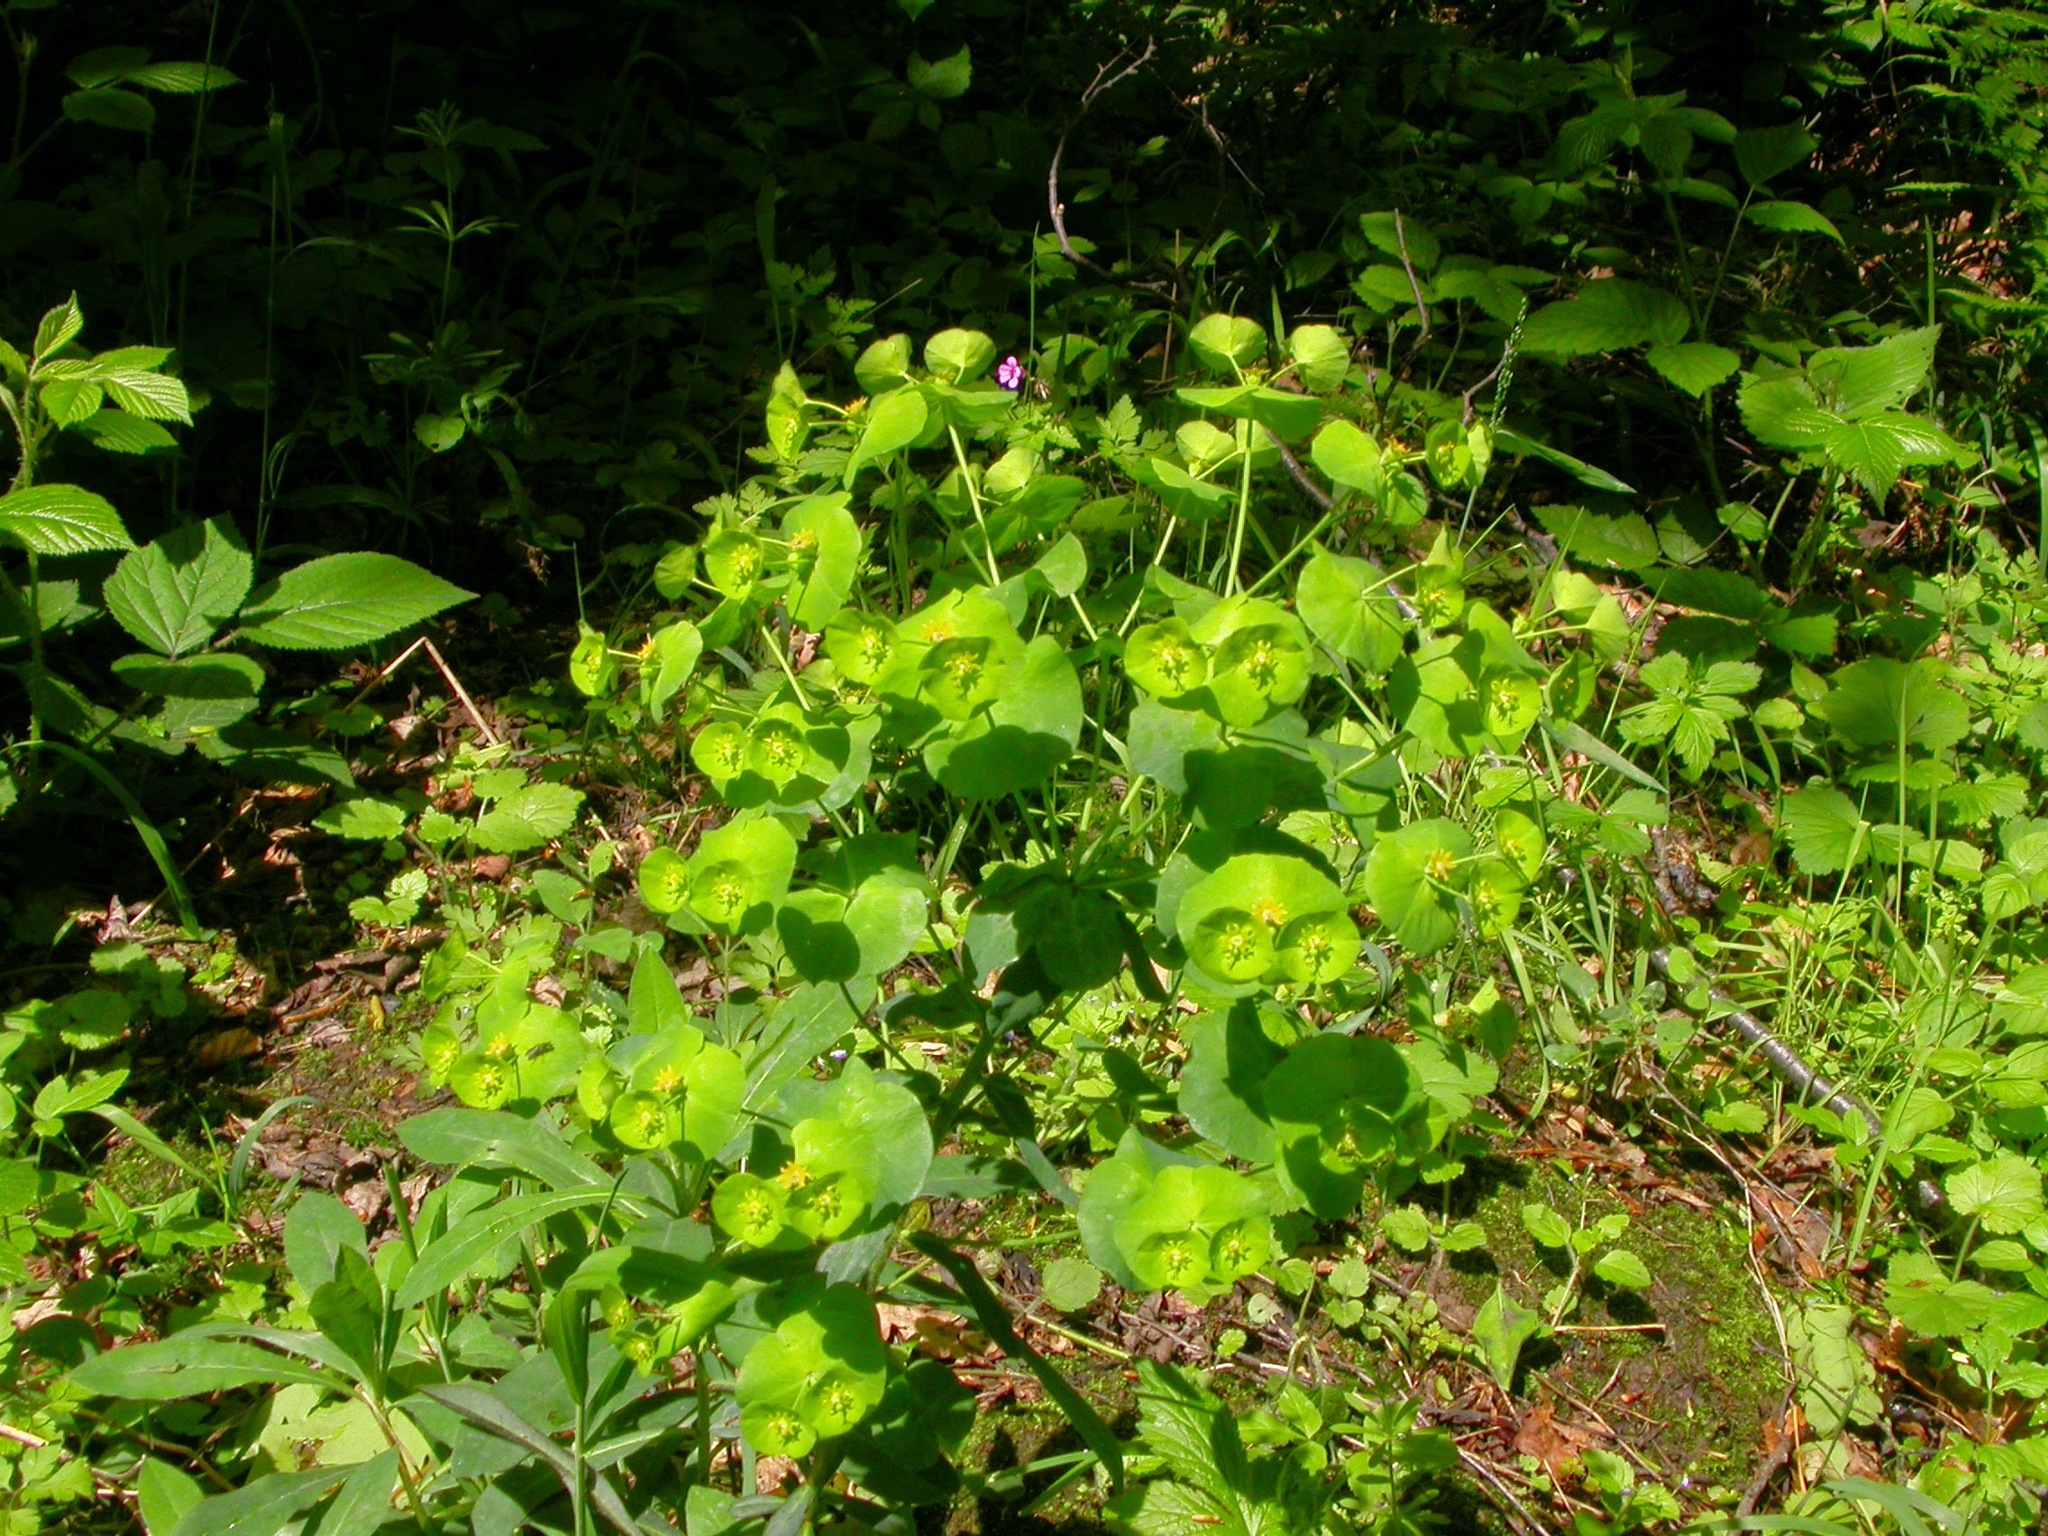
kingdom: Plantae
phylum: Tracheophyta
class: Magnoliopsida
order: Malpighiales
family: Euphorbiaceae
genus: Euphorbia
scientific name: Euphorbia amygdaloides
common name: Wood spurge
